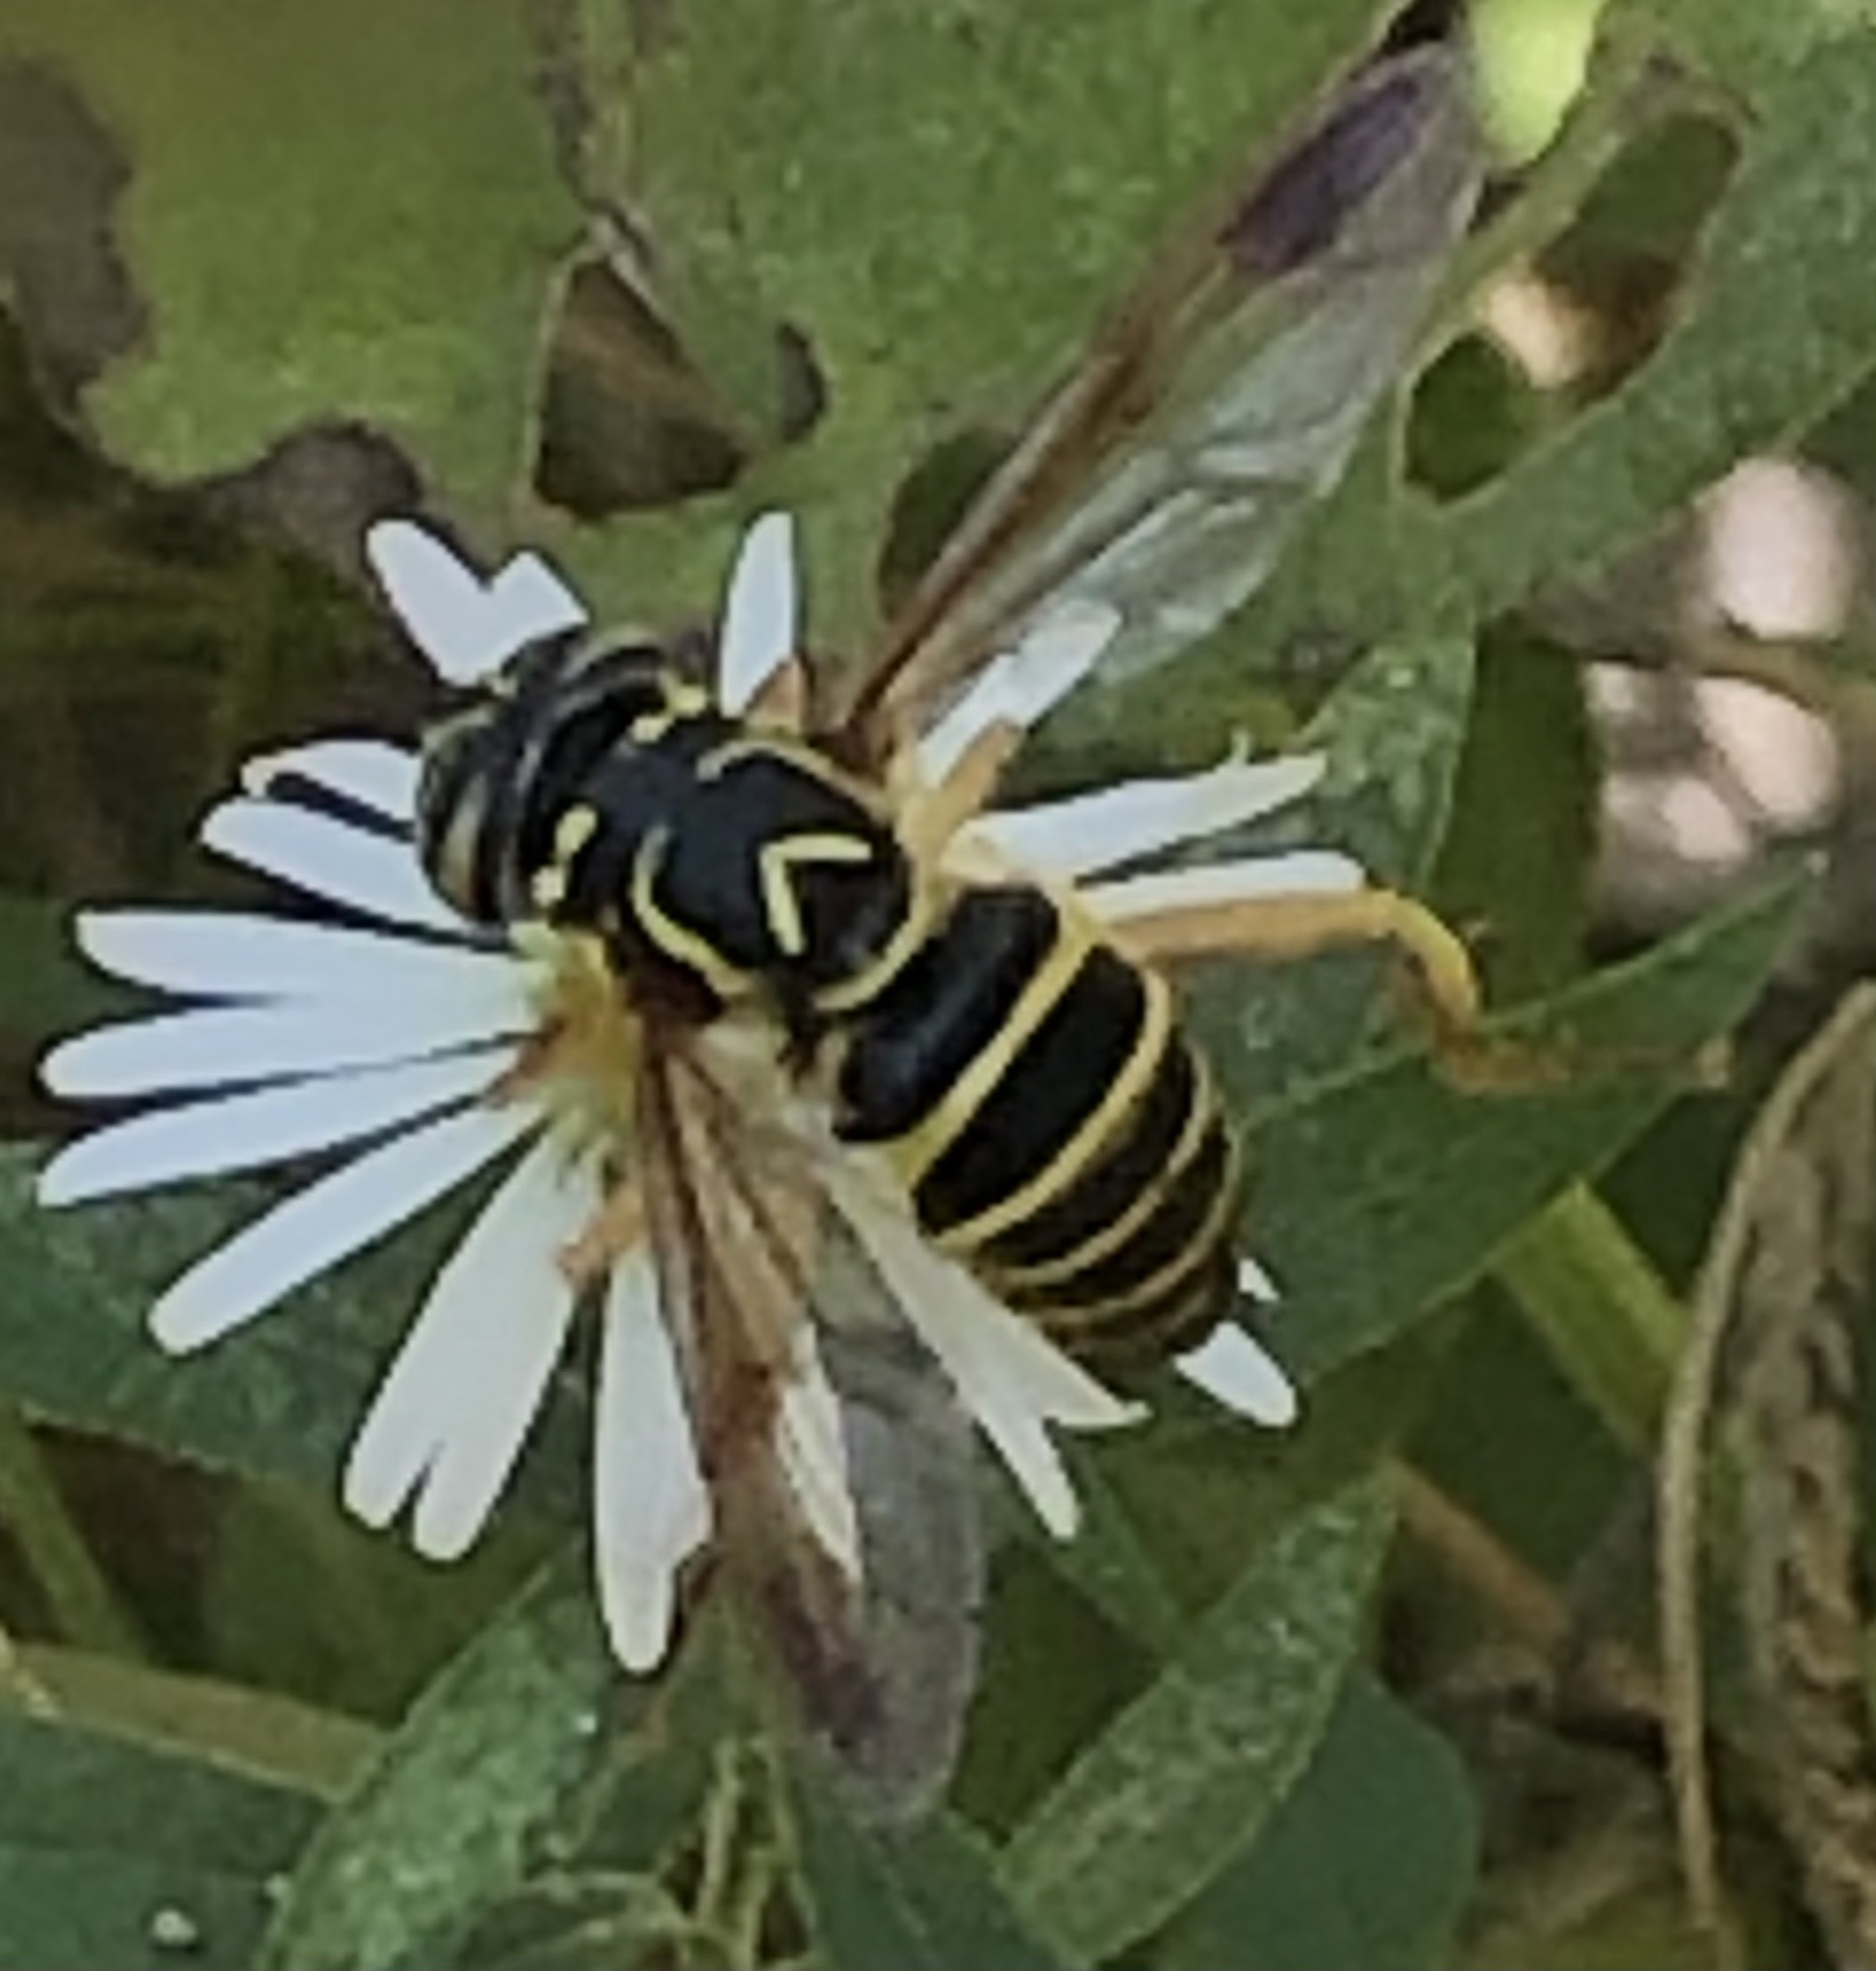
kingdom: Animalia
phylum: Arthropoda
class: Insecta
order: Diptera
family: Syrphidae
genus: Spilomyia
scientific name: Spilomyia longicornis
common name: Eastern hornet fly
